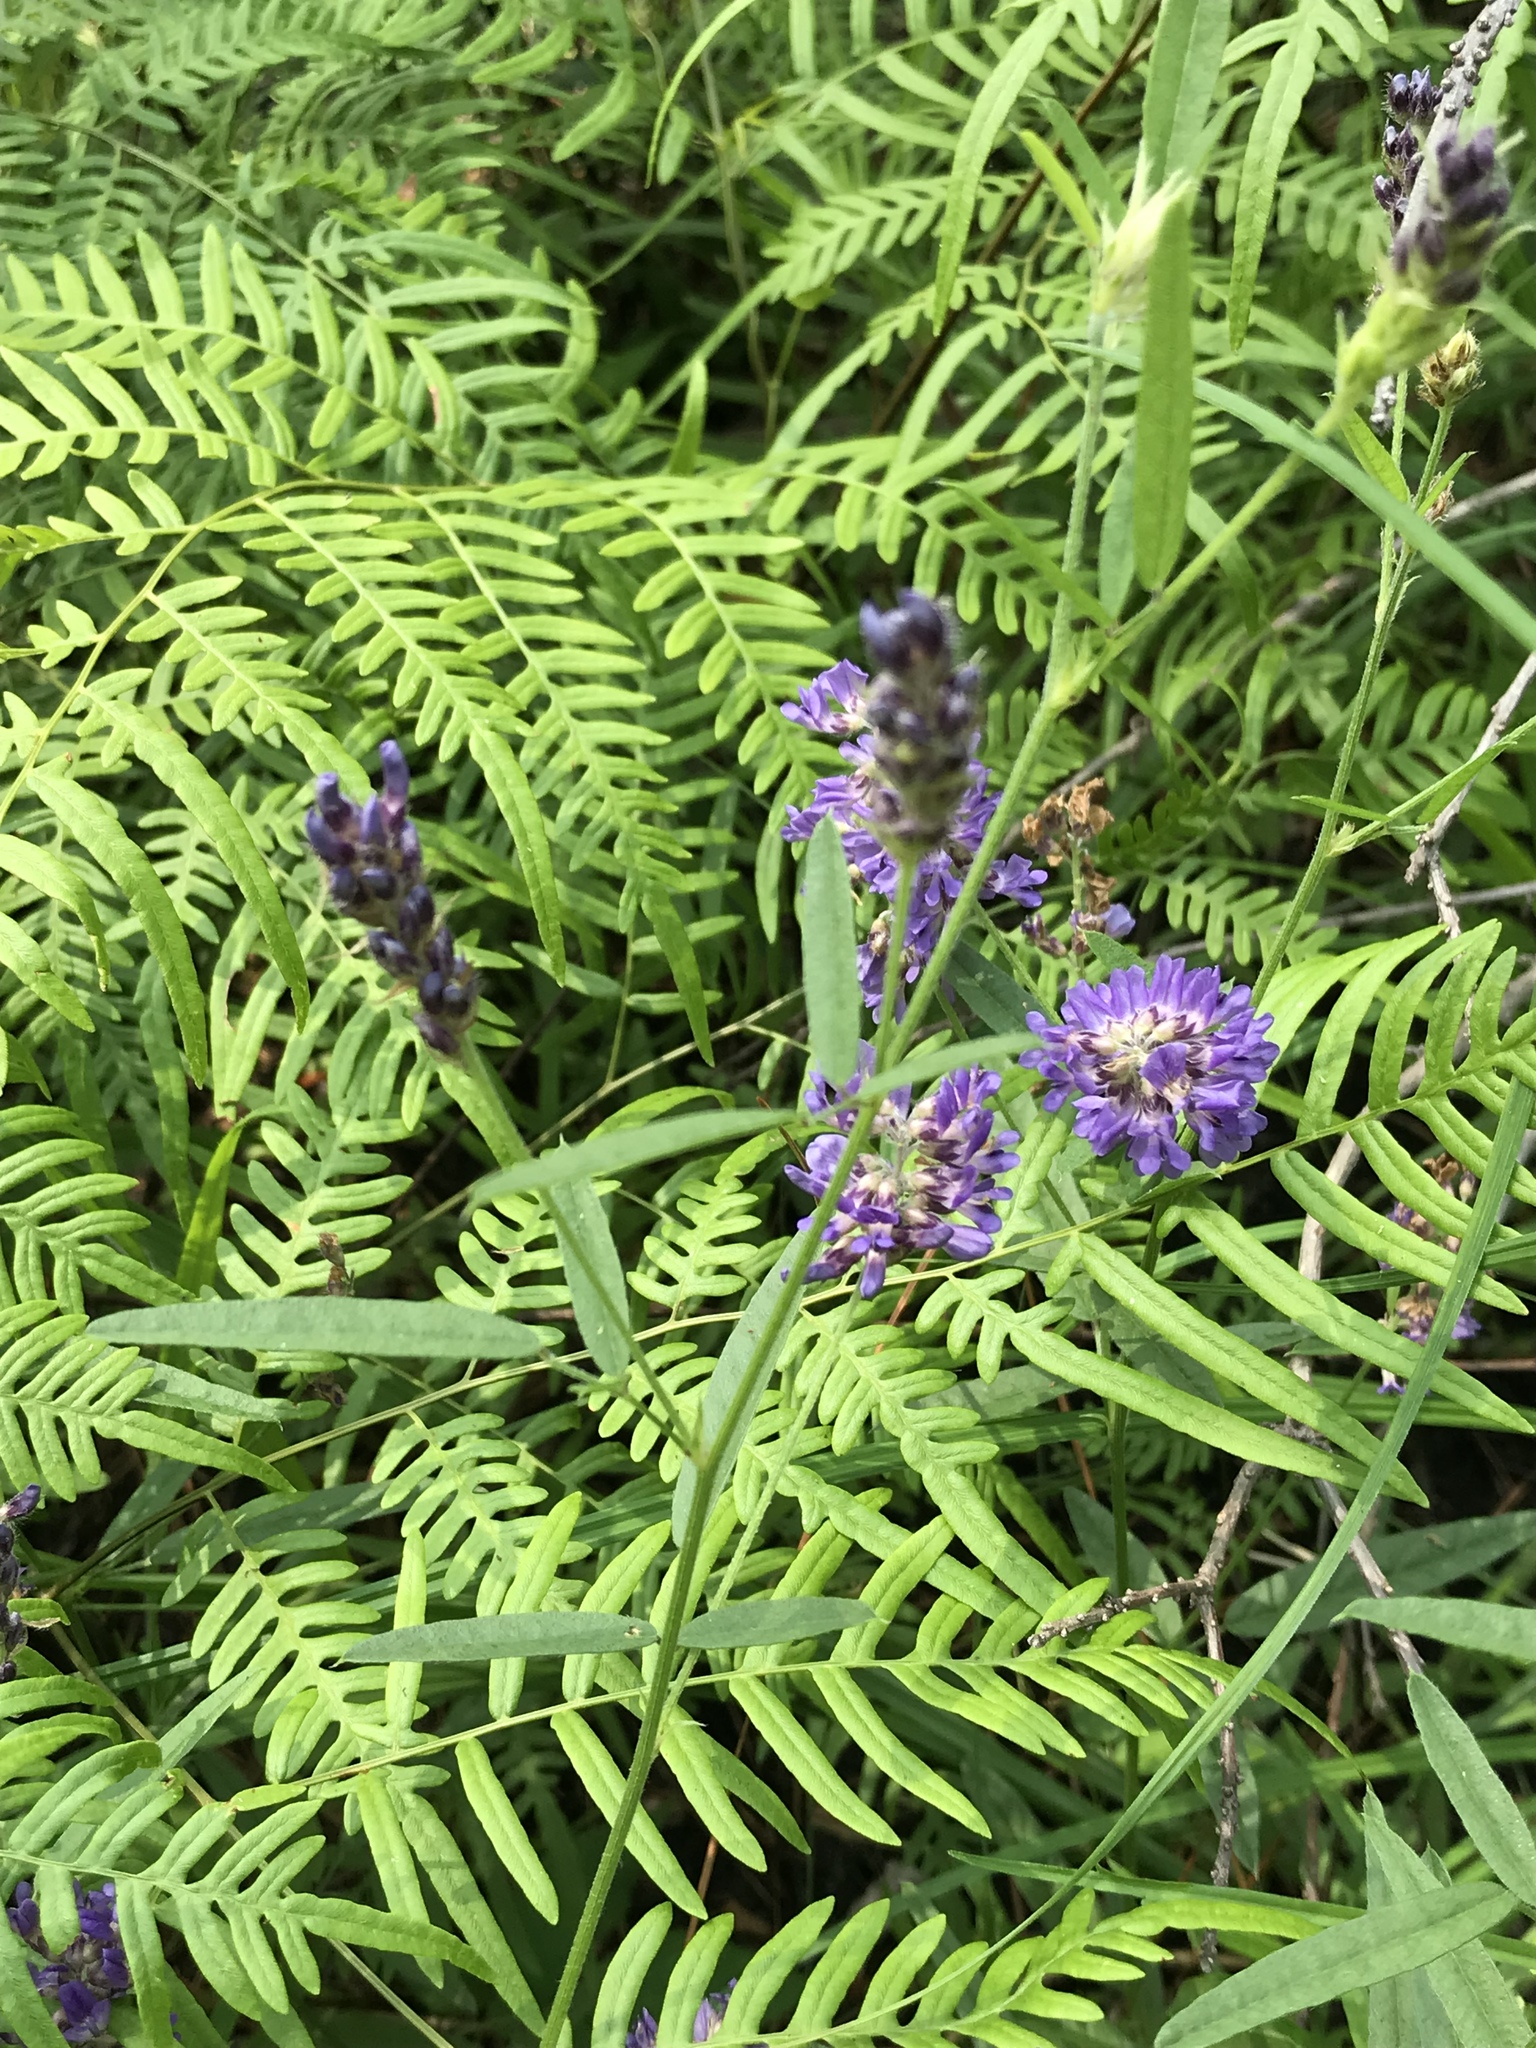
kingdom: Plantae
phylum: Tracheophyta
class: Magnoliopsida
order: Fabales
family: Fabaceae
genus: Orbexilum
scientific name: Orbexilum simplex
